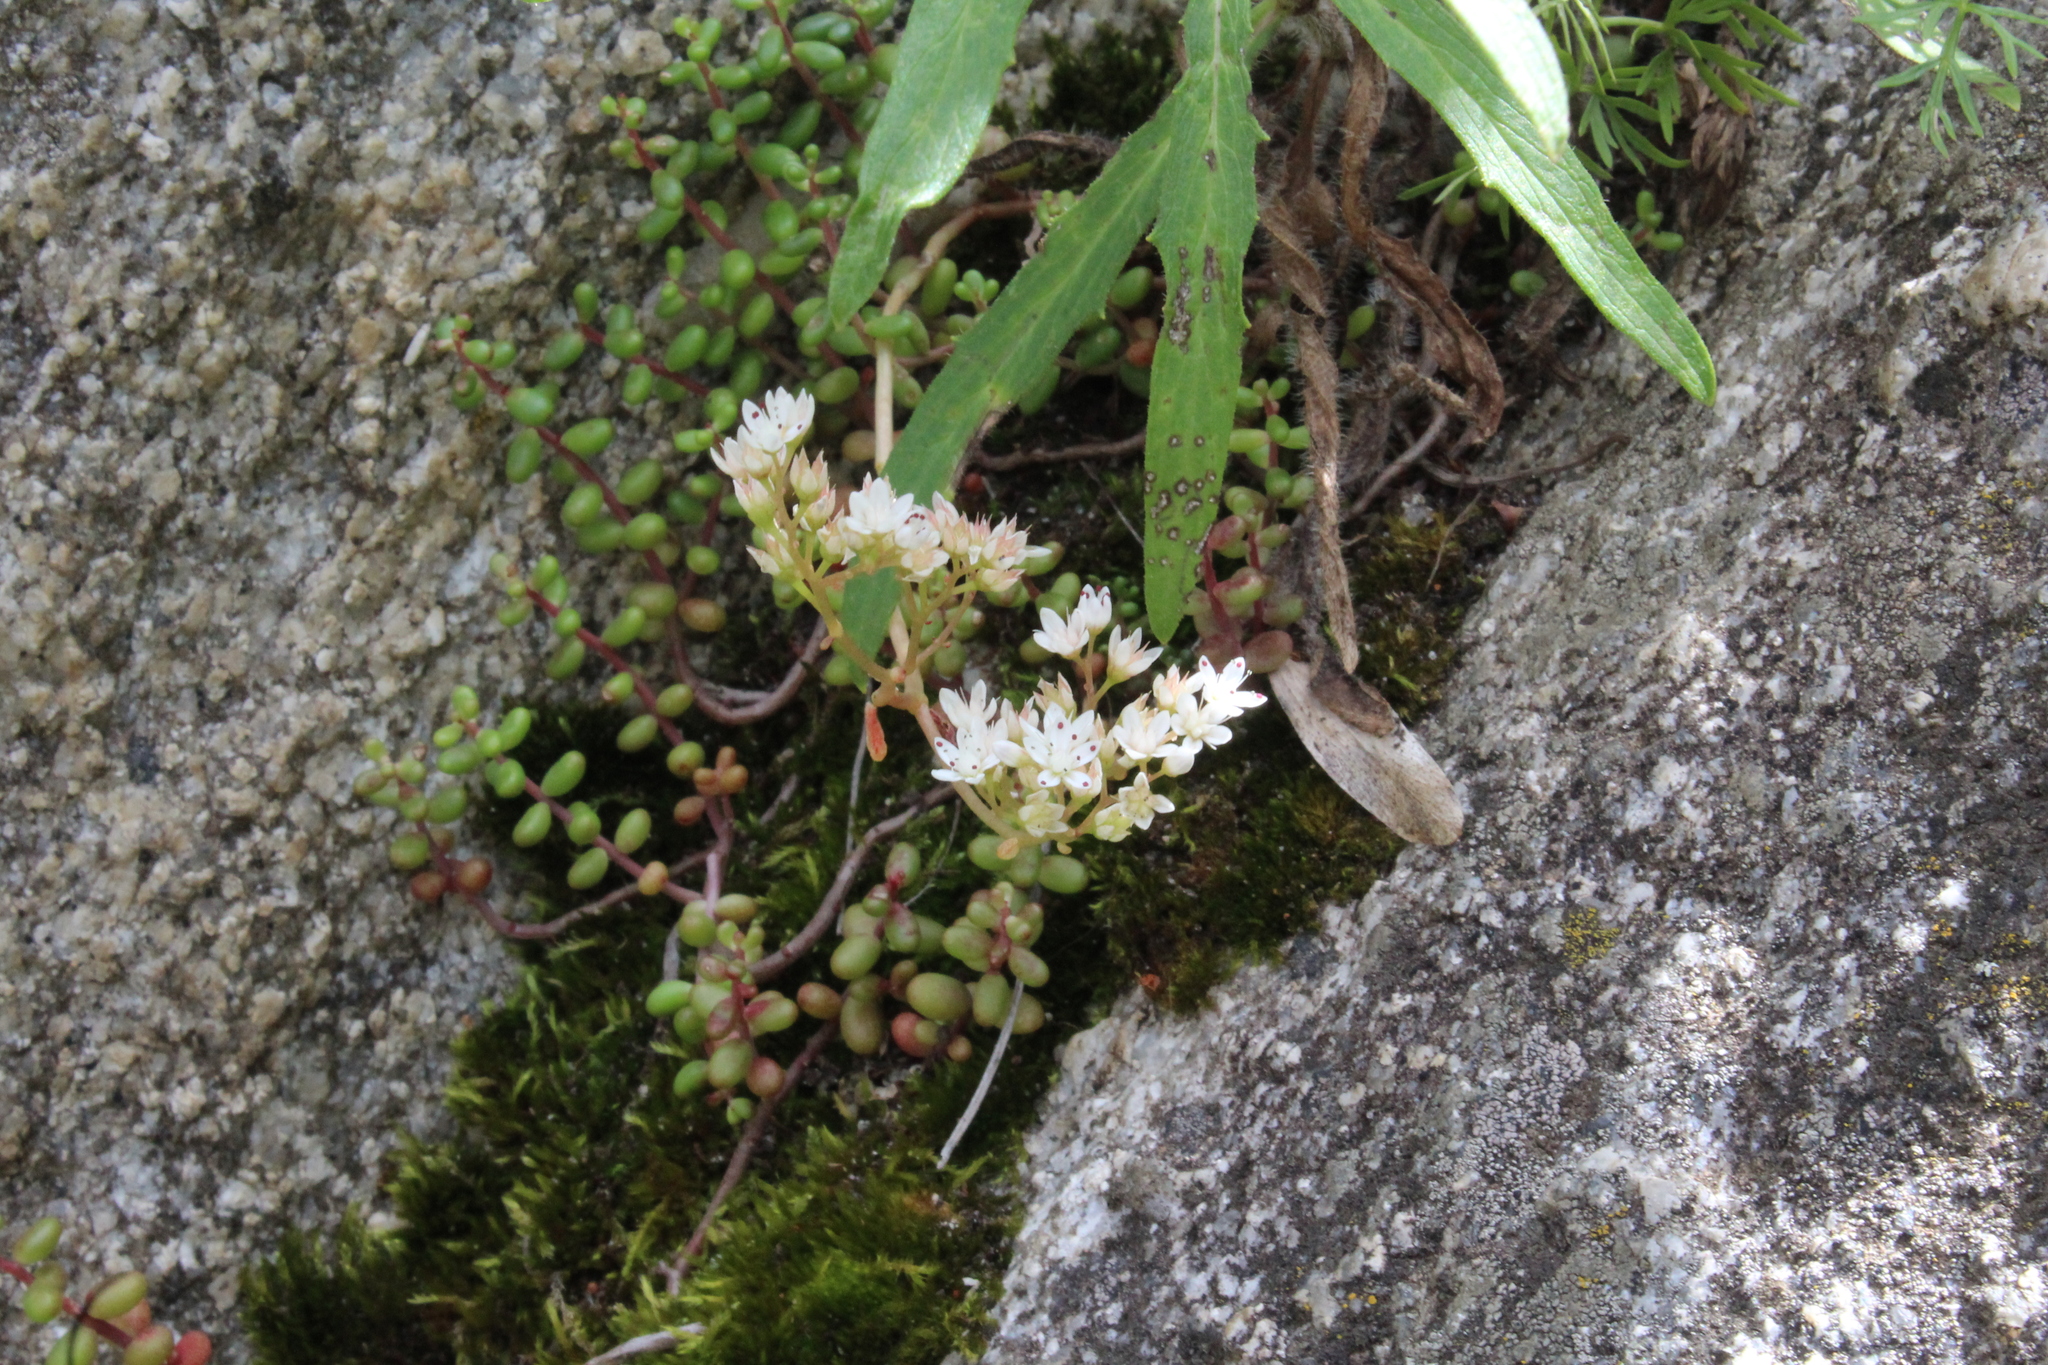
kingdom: Plantae
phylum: Tracheophyta
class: Magnoliopsida
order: Saxifragales
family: Crassulaceae
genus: Sedum
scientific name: Sedum album
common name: White stonecrop
